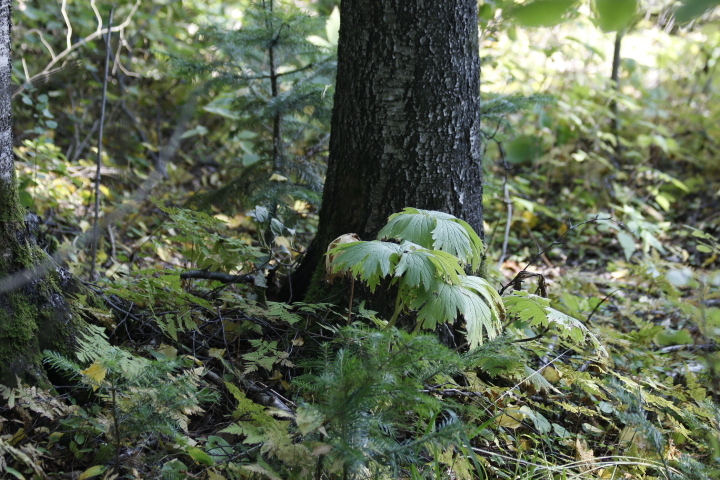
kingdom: Plantae
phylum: Tracheophyta
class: Magnoliopsida
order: Ranunculales
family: Ranunculaceae
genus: Aconitum
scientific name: Aconitum septentrionale
